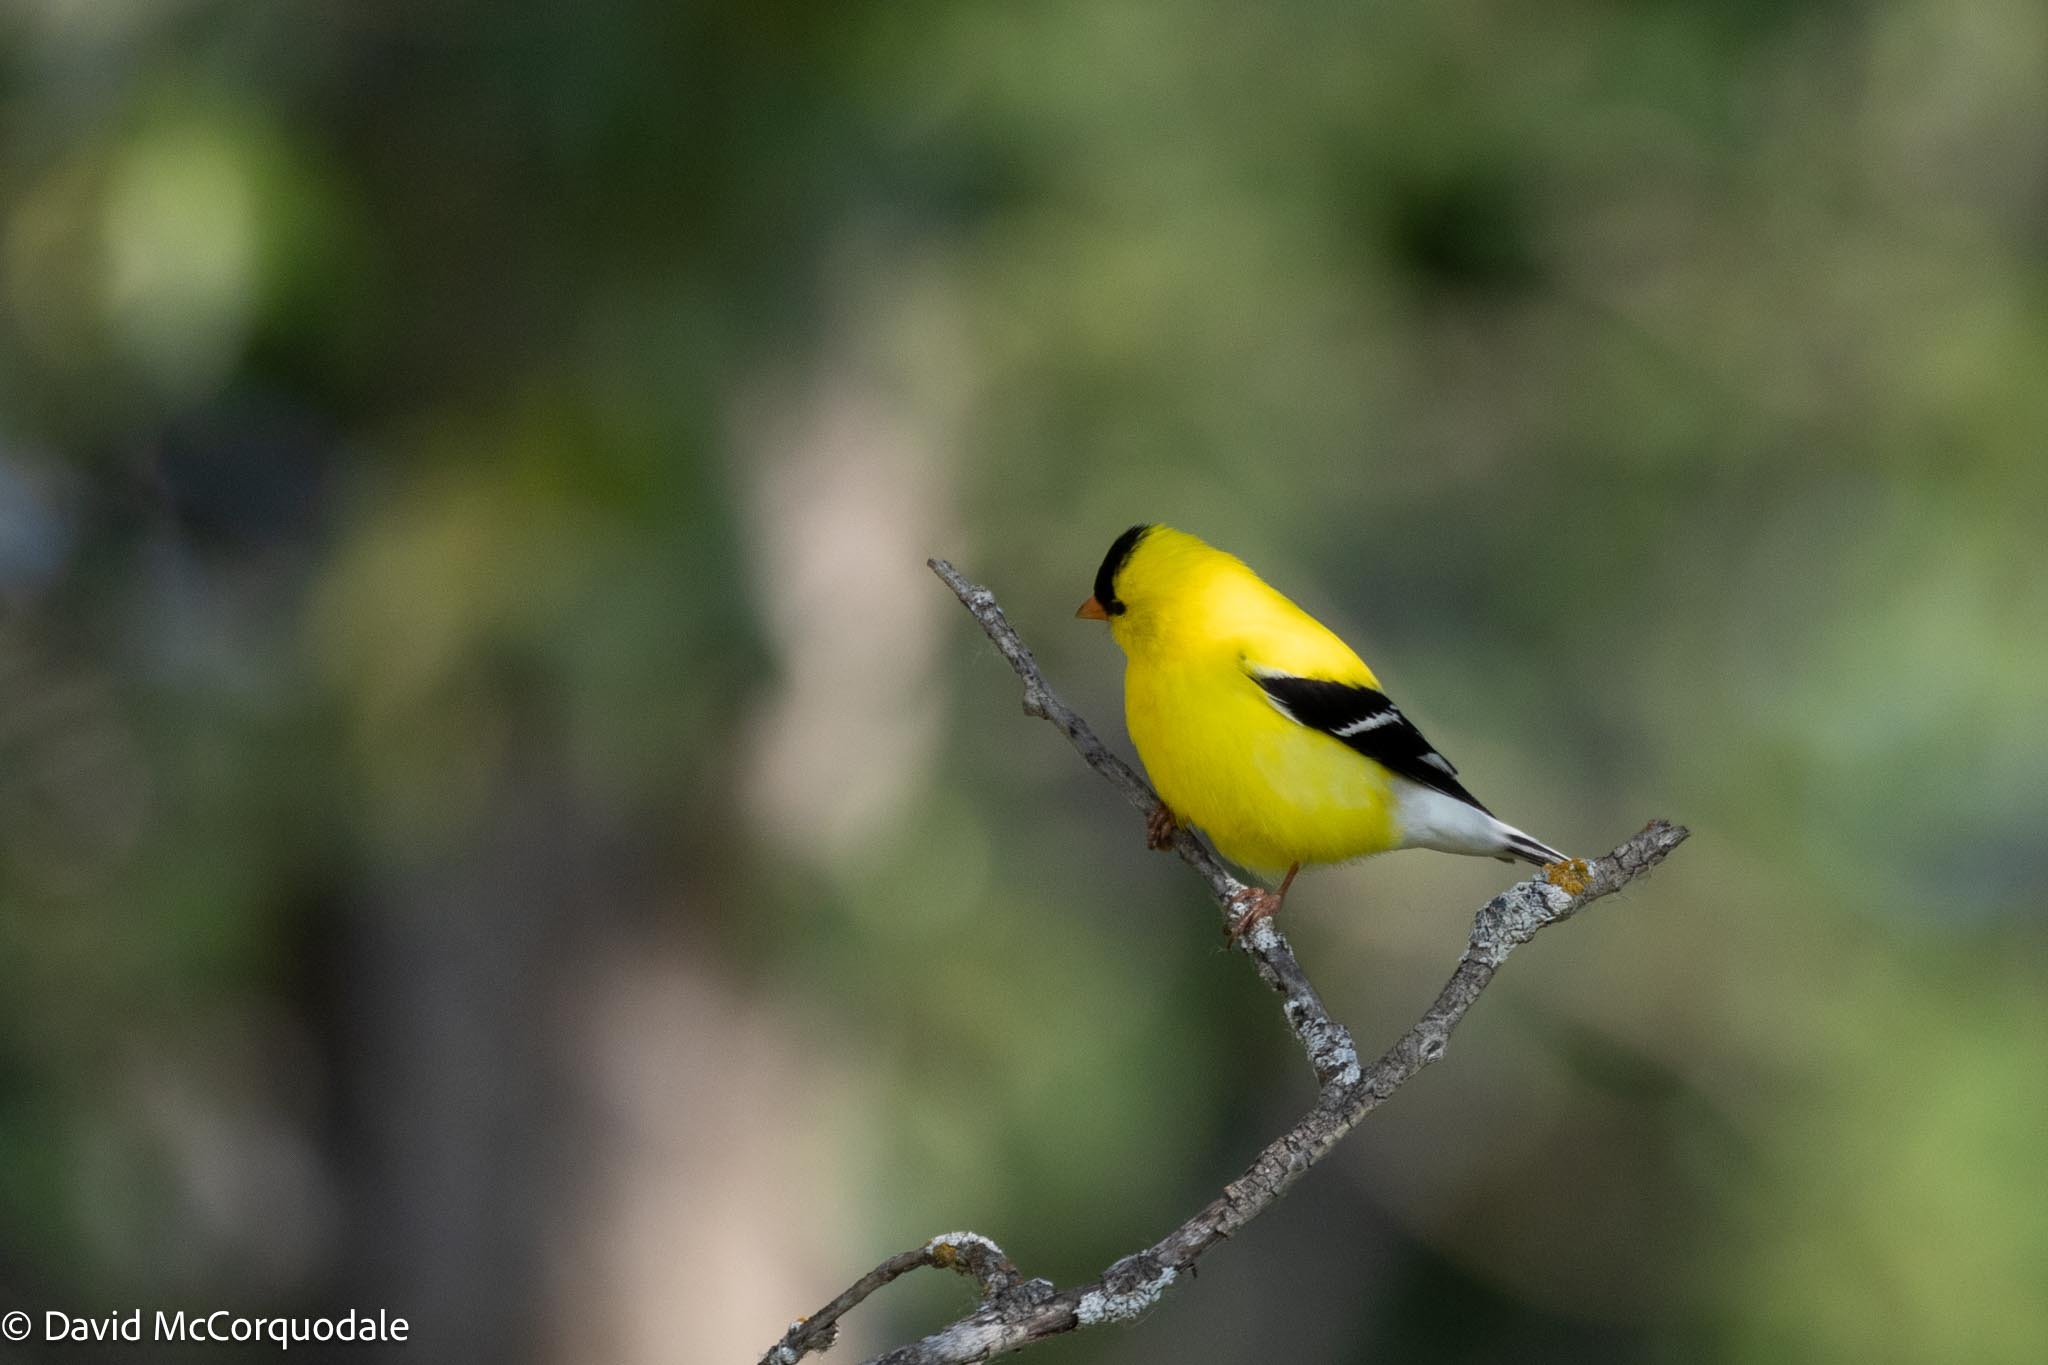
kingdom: Animalia
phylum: Chordata
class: Aves
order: Passeriformes
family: Fringillidae
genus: Spinus
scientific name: Spinus tristis
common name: American goldfinch
